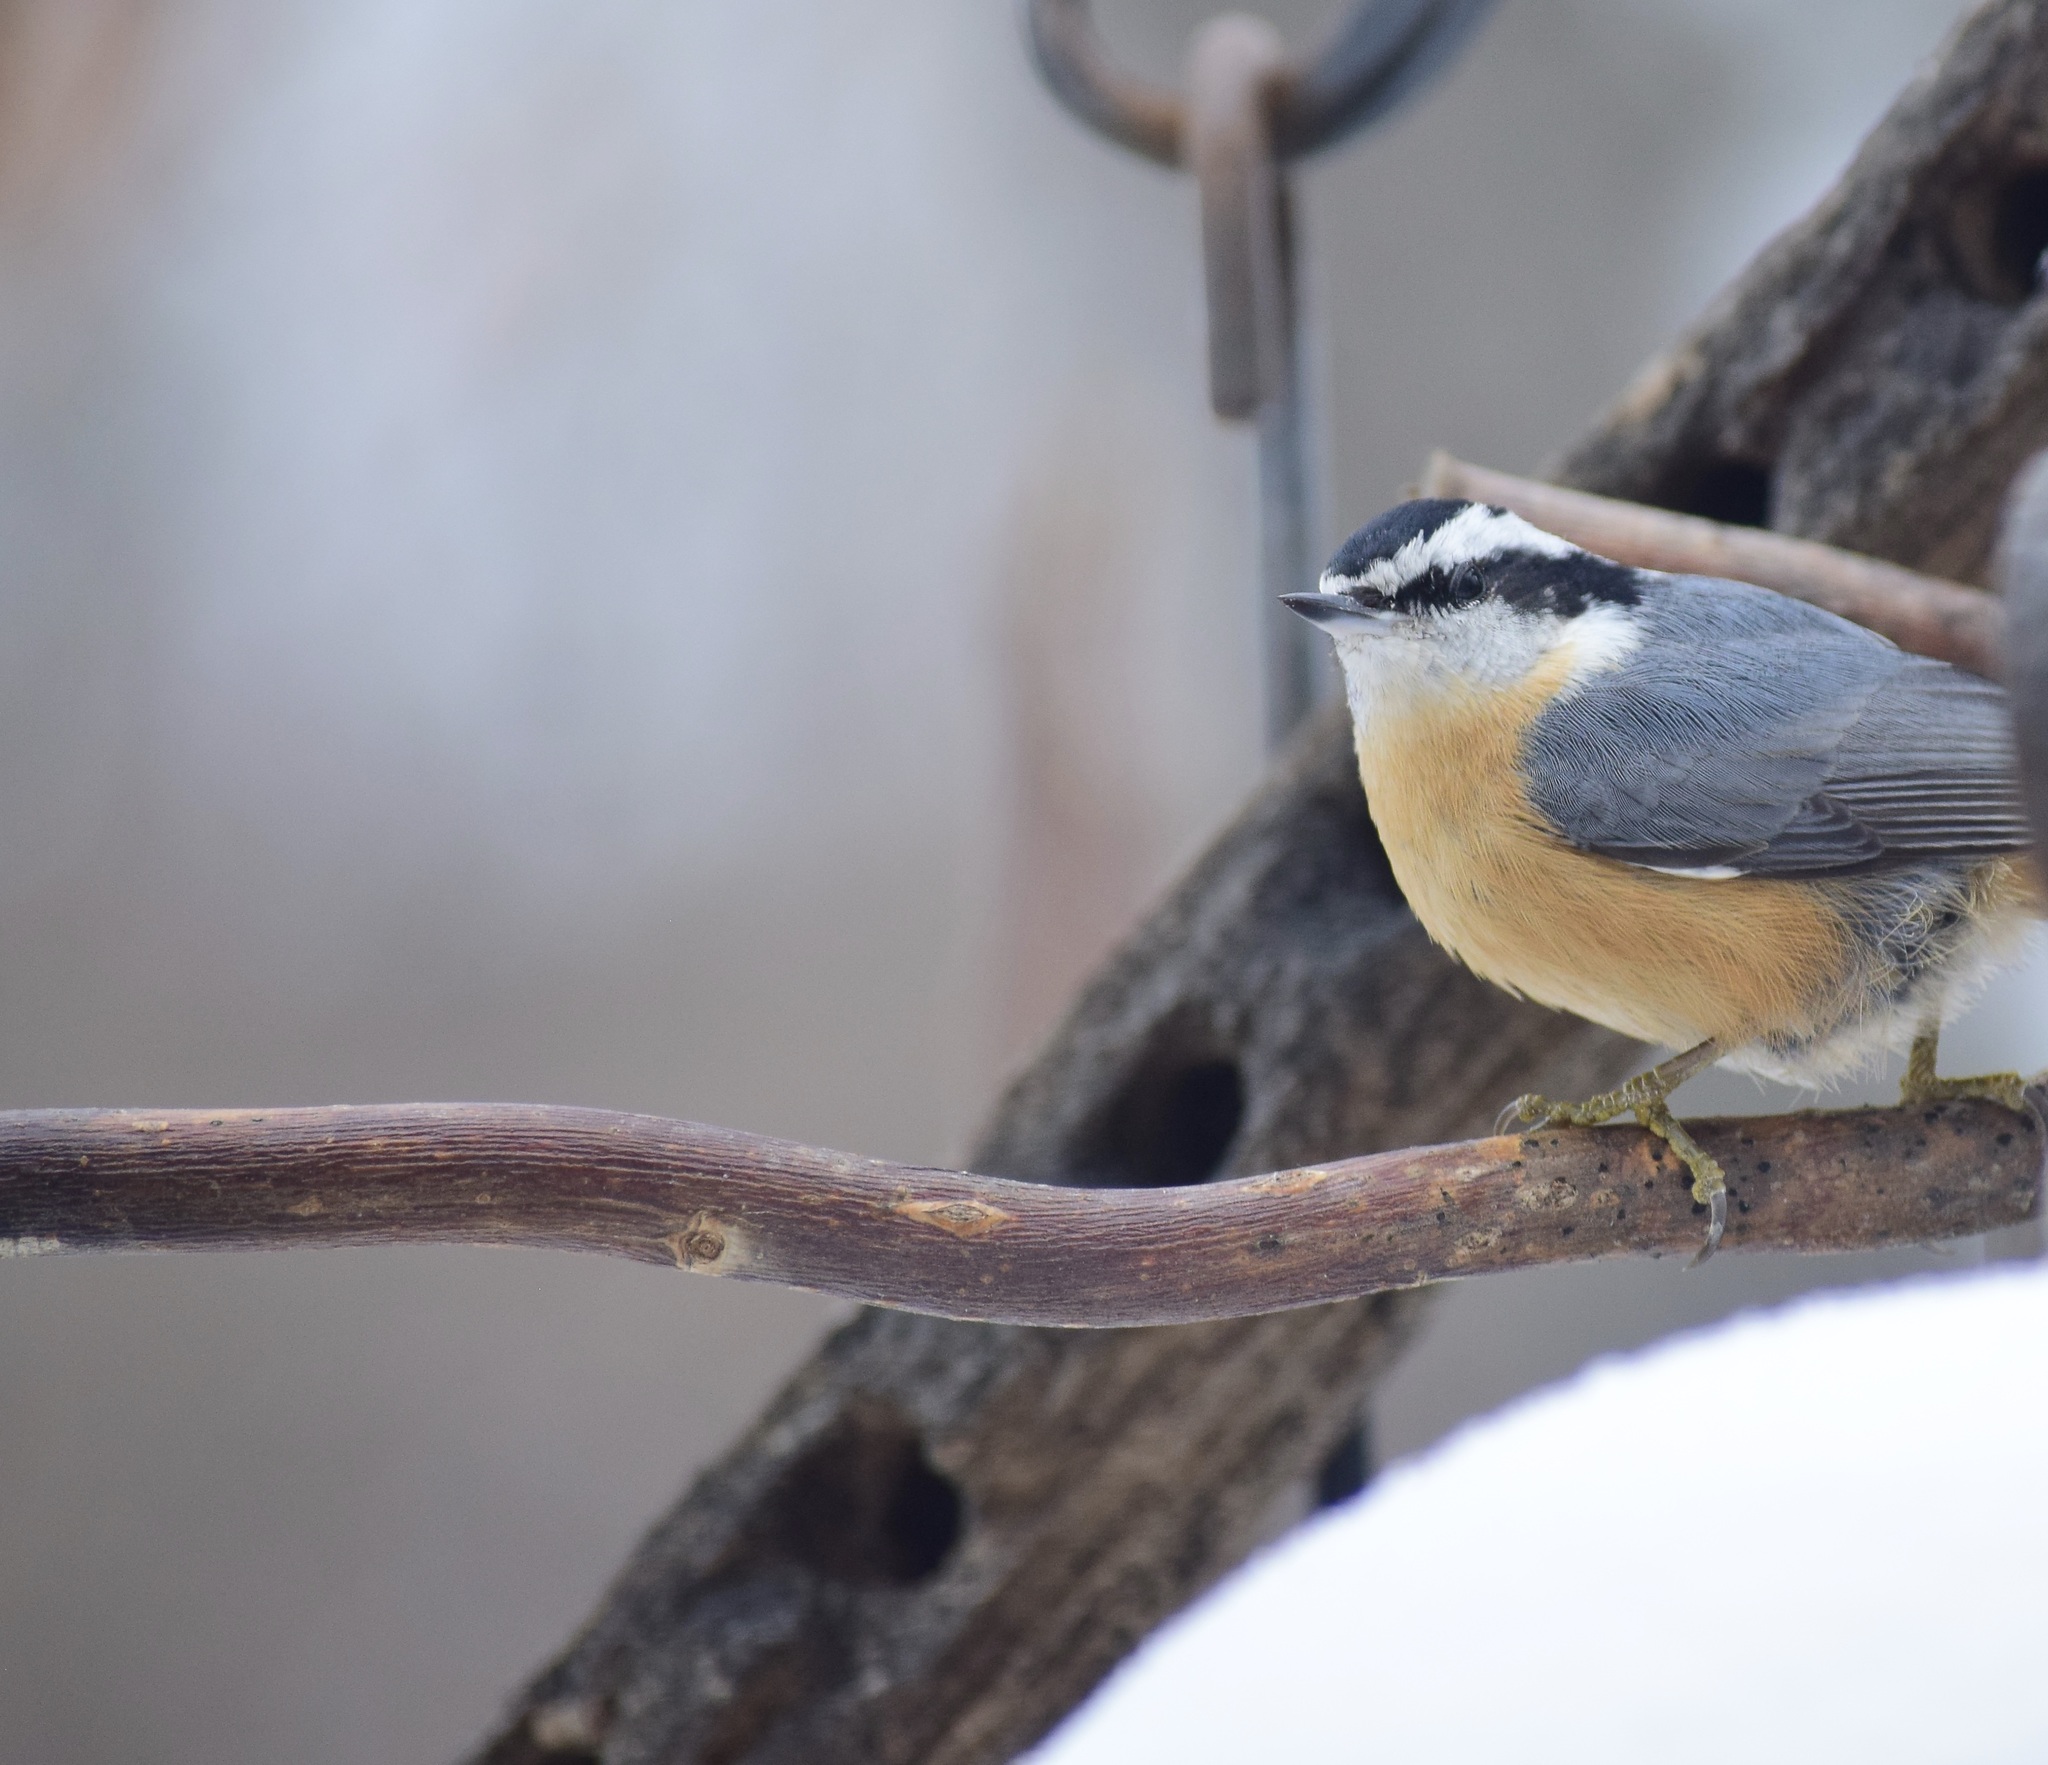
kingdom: Animalia
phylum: Chordata
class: Aves
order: Passeriformes
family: Sittidae
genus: Sitta
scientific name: Sitta canadensis
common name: Red-breasted nuthatch
